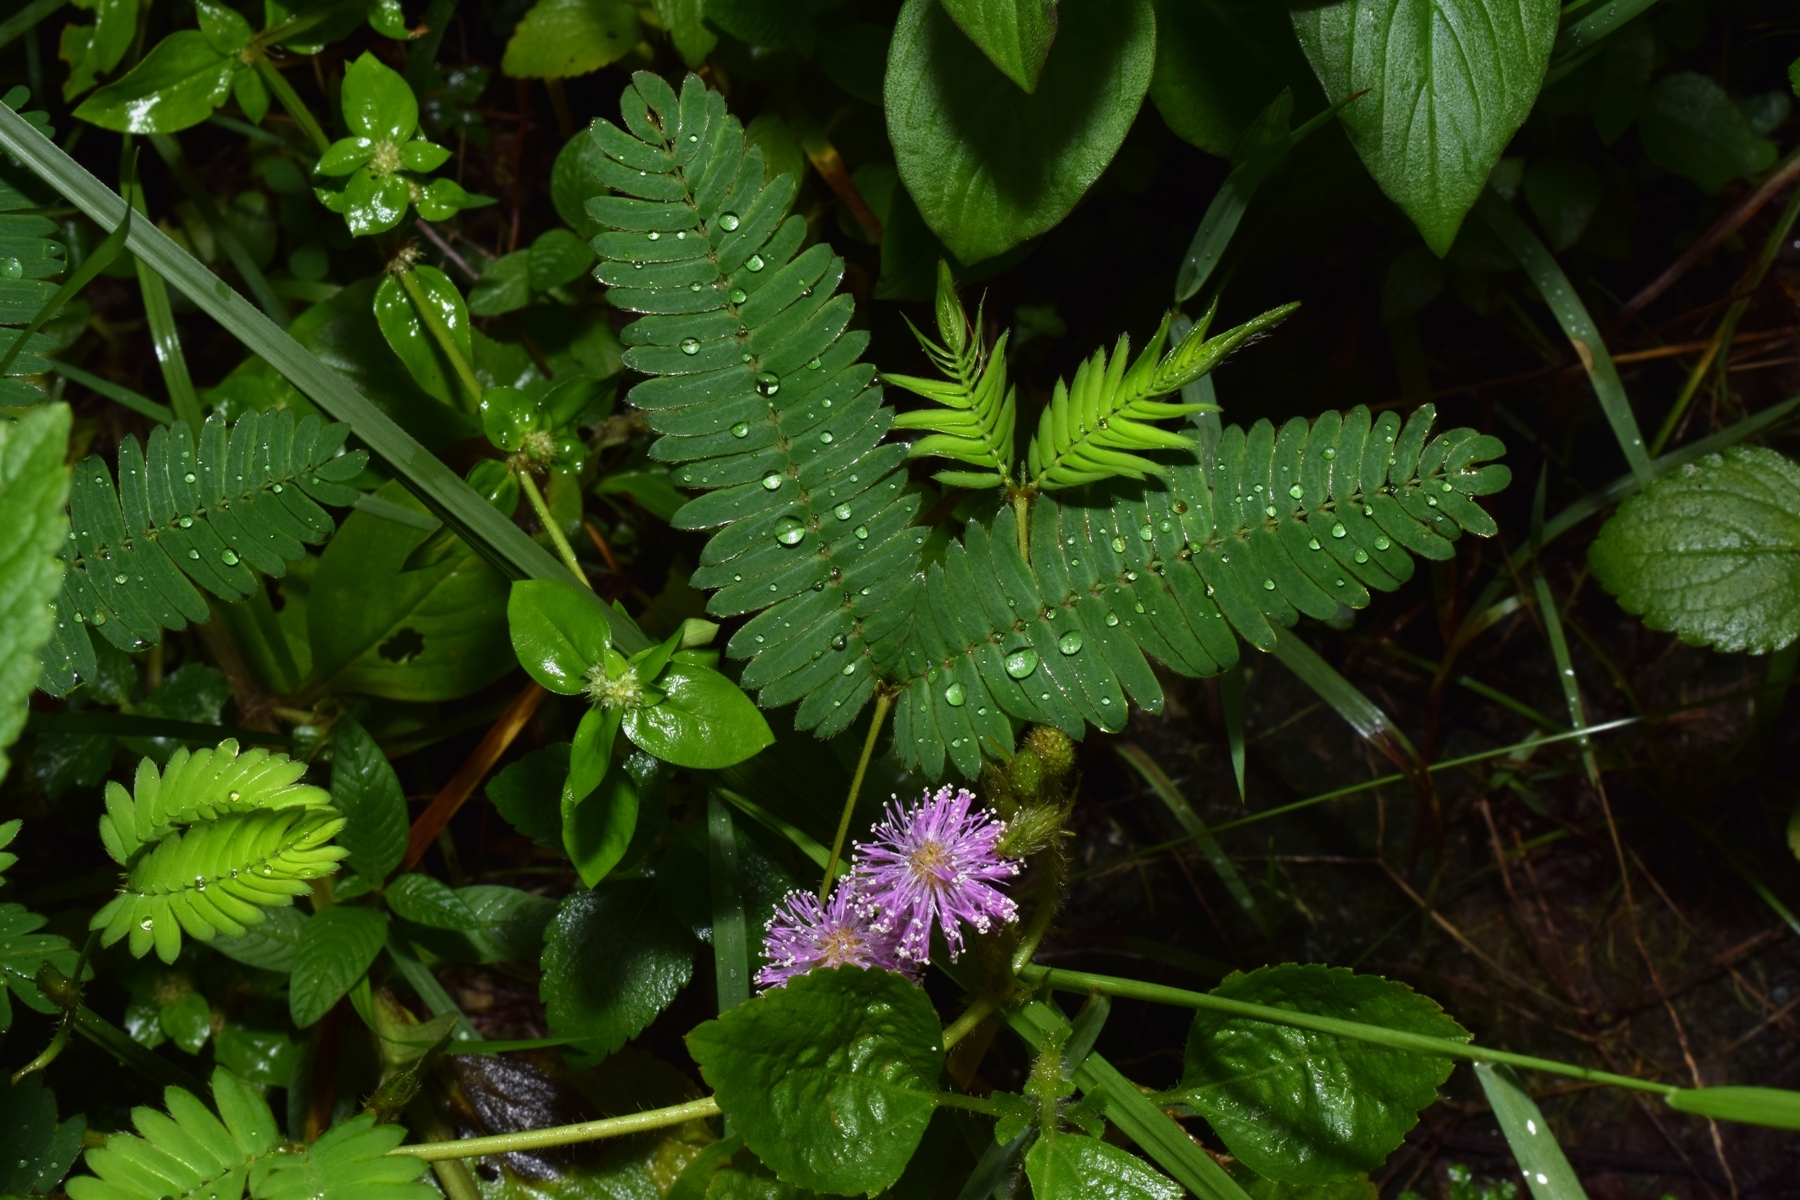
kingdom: Plantae
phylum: Tracheophyta
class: Magnoliopsida
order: Fabales
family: Fabaceae
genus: Mimosa
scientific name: Mimosa pudica
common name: Sensitive plant
